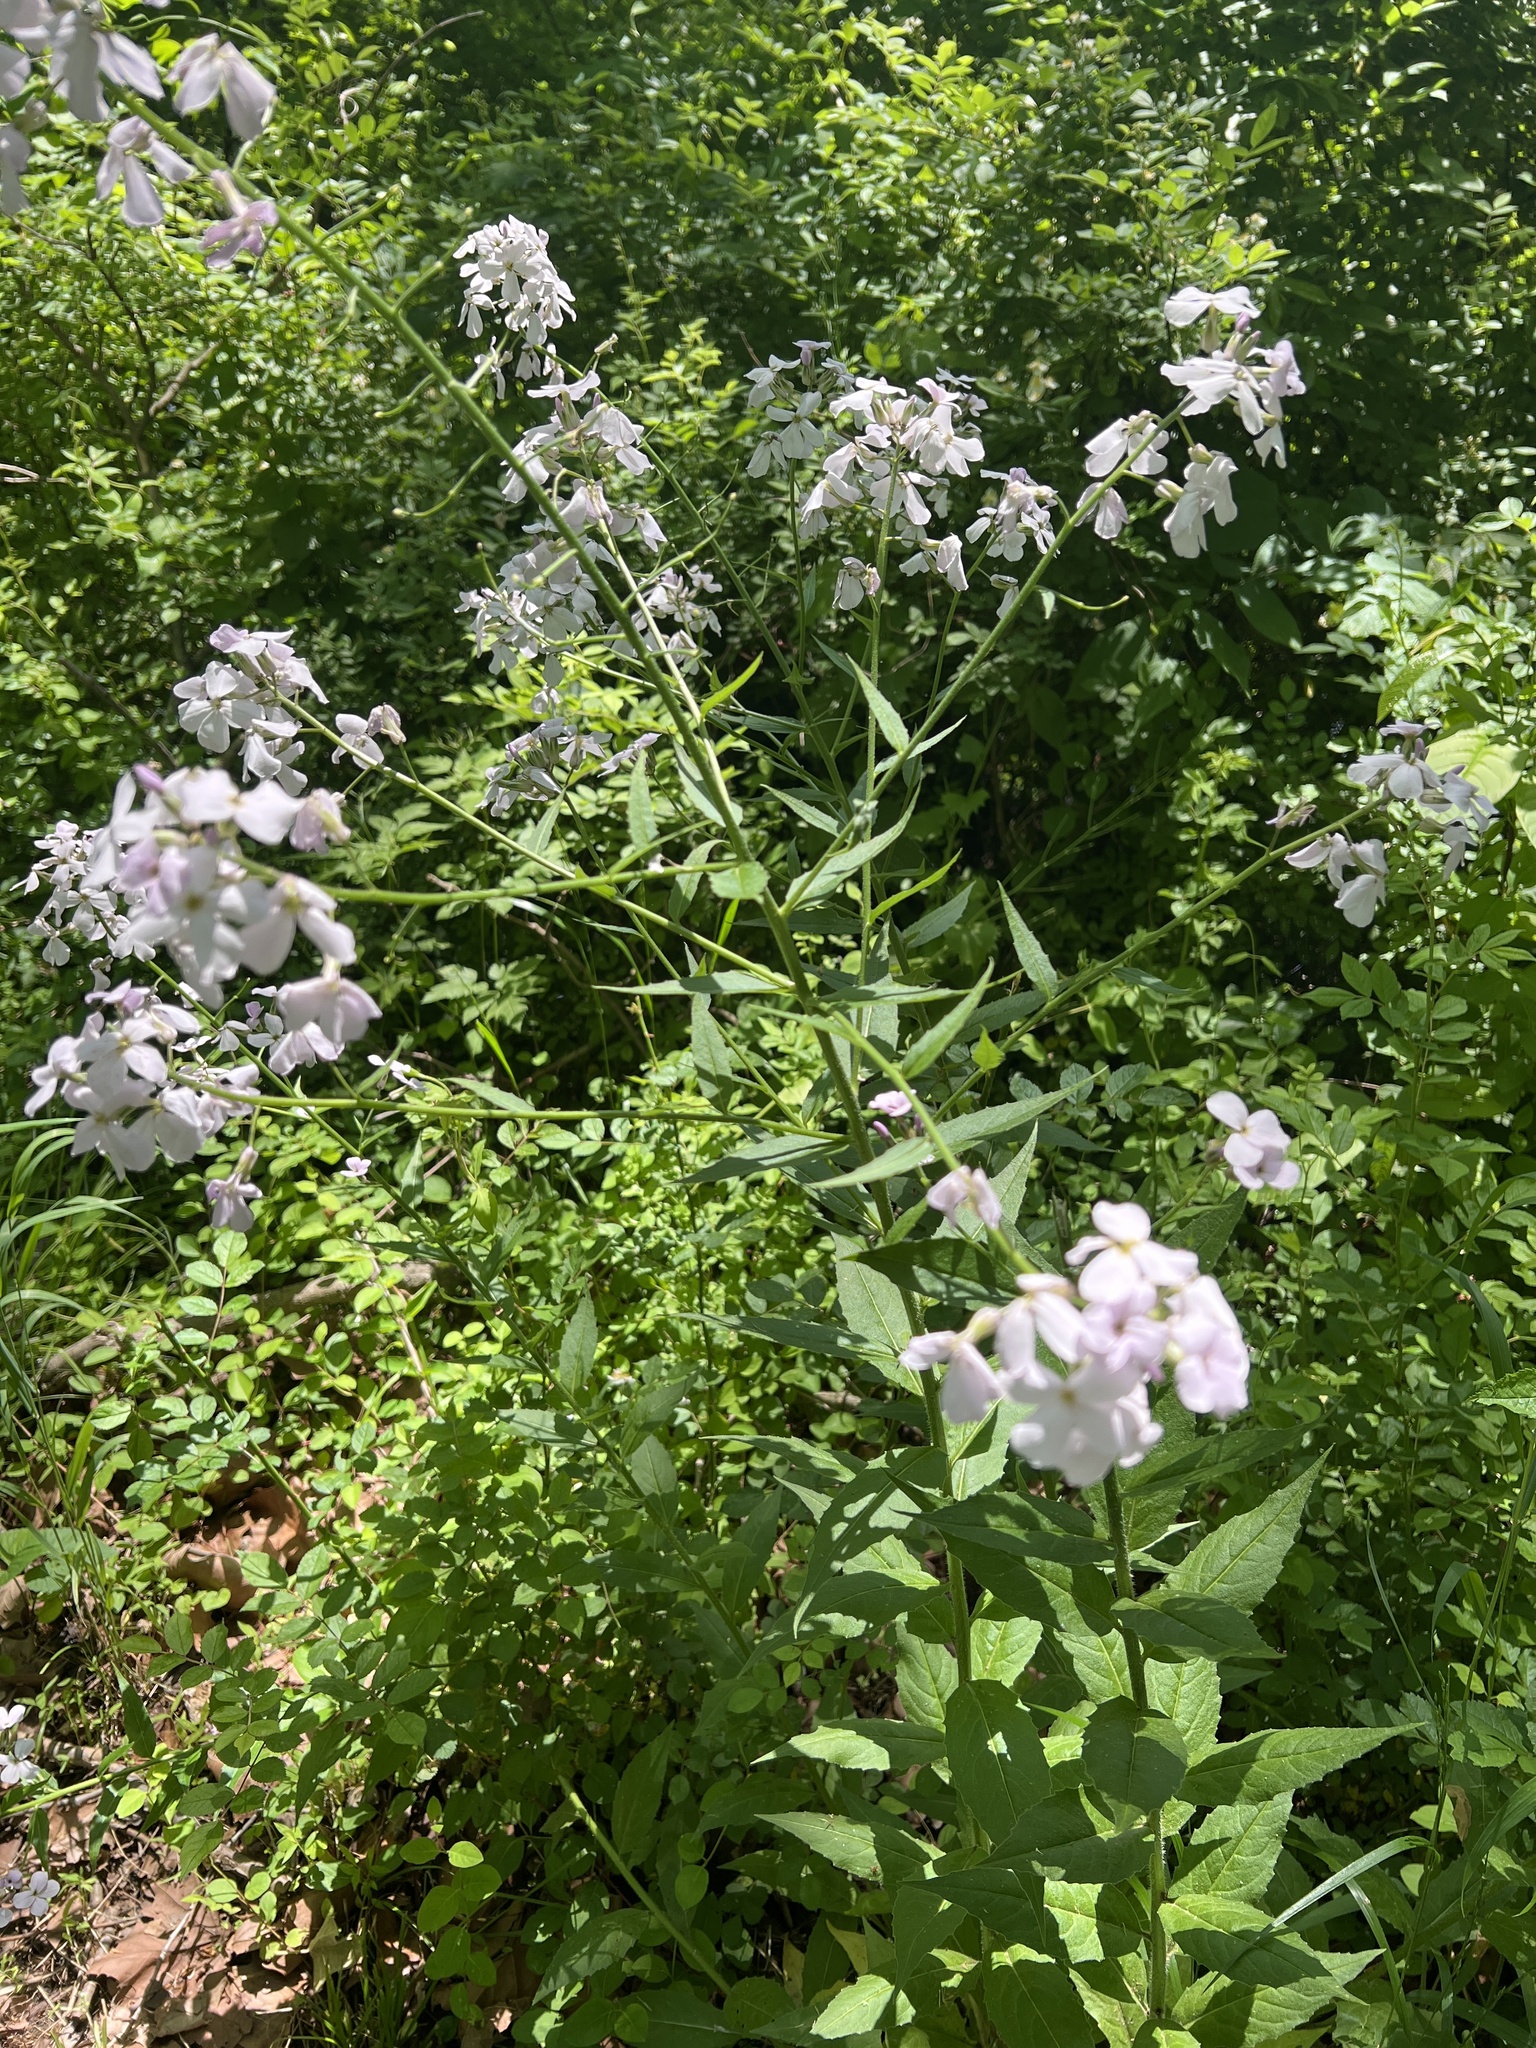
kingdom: Plantae
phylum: Tracheophyta
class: Magnoliopsida
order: Brassicales
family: Brassicaceae
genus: Hesperis
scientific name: Hesperis matronalis
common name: Dame's-violet
